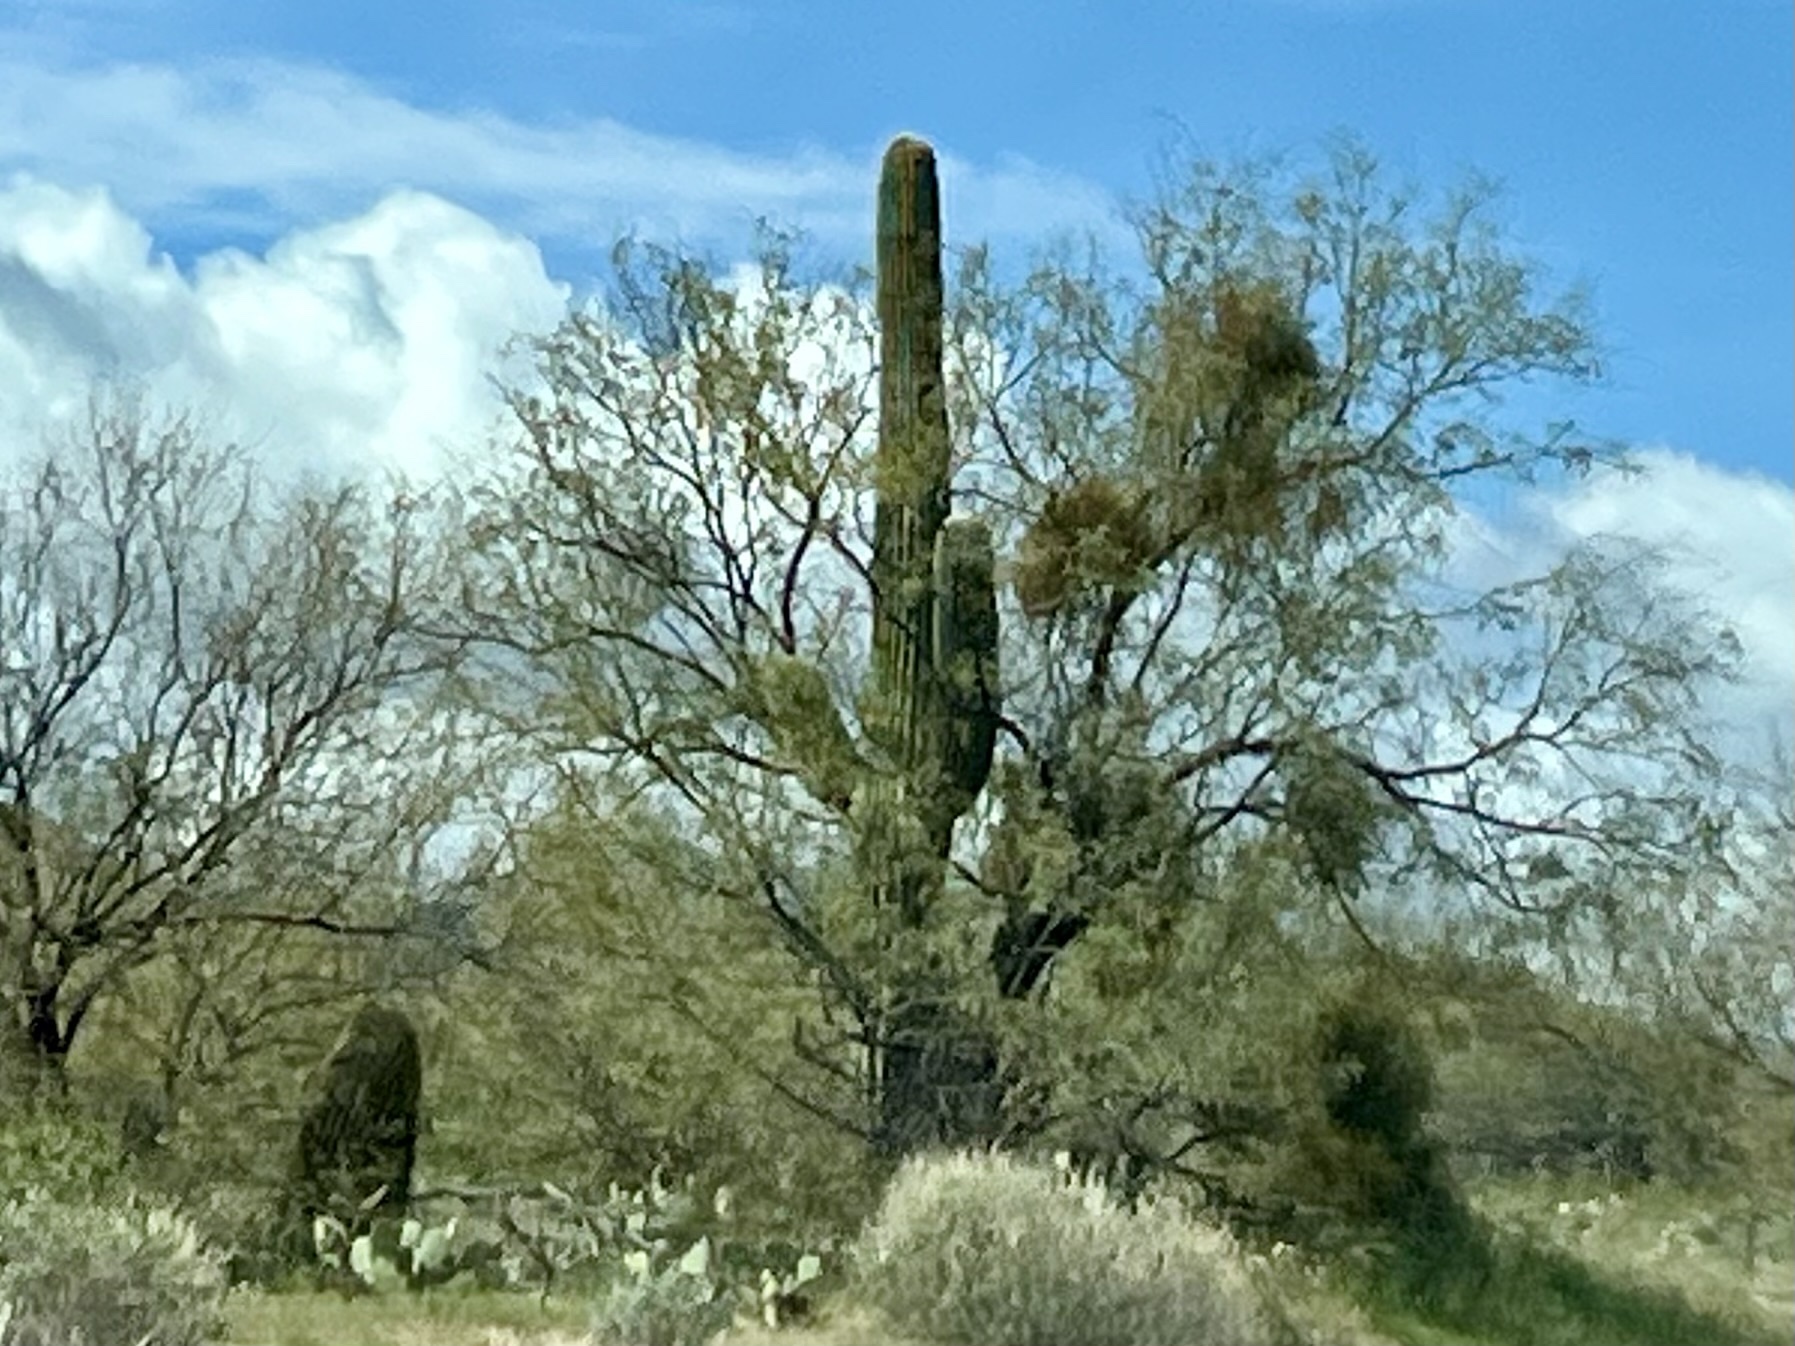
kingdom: Plantae
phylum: Tracheophyta
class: Magnoliopsida
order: Caryophyllales
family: Cactaceae
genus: Carnegiea
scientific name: Carnegiea gigantea
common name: Saguaro
